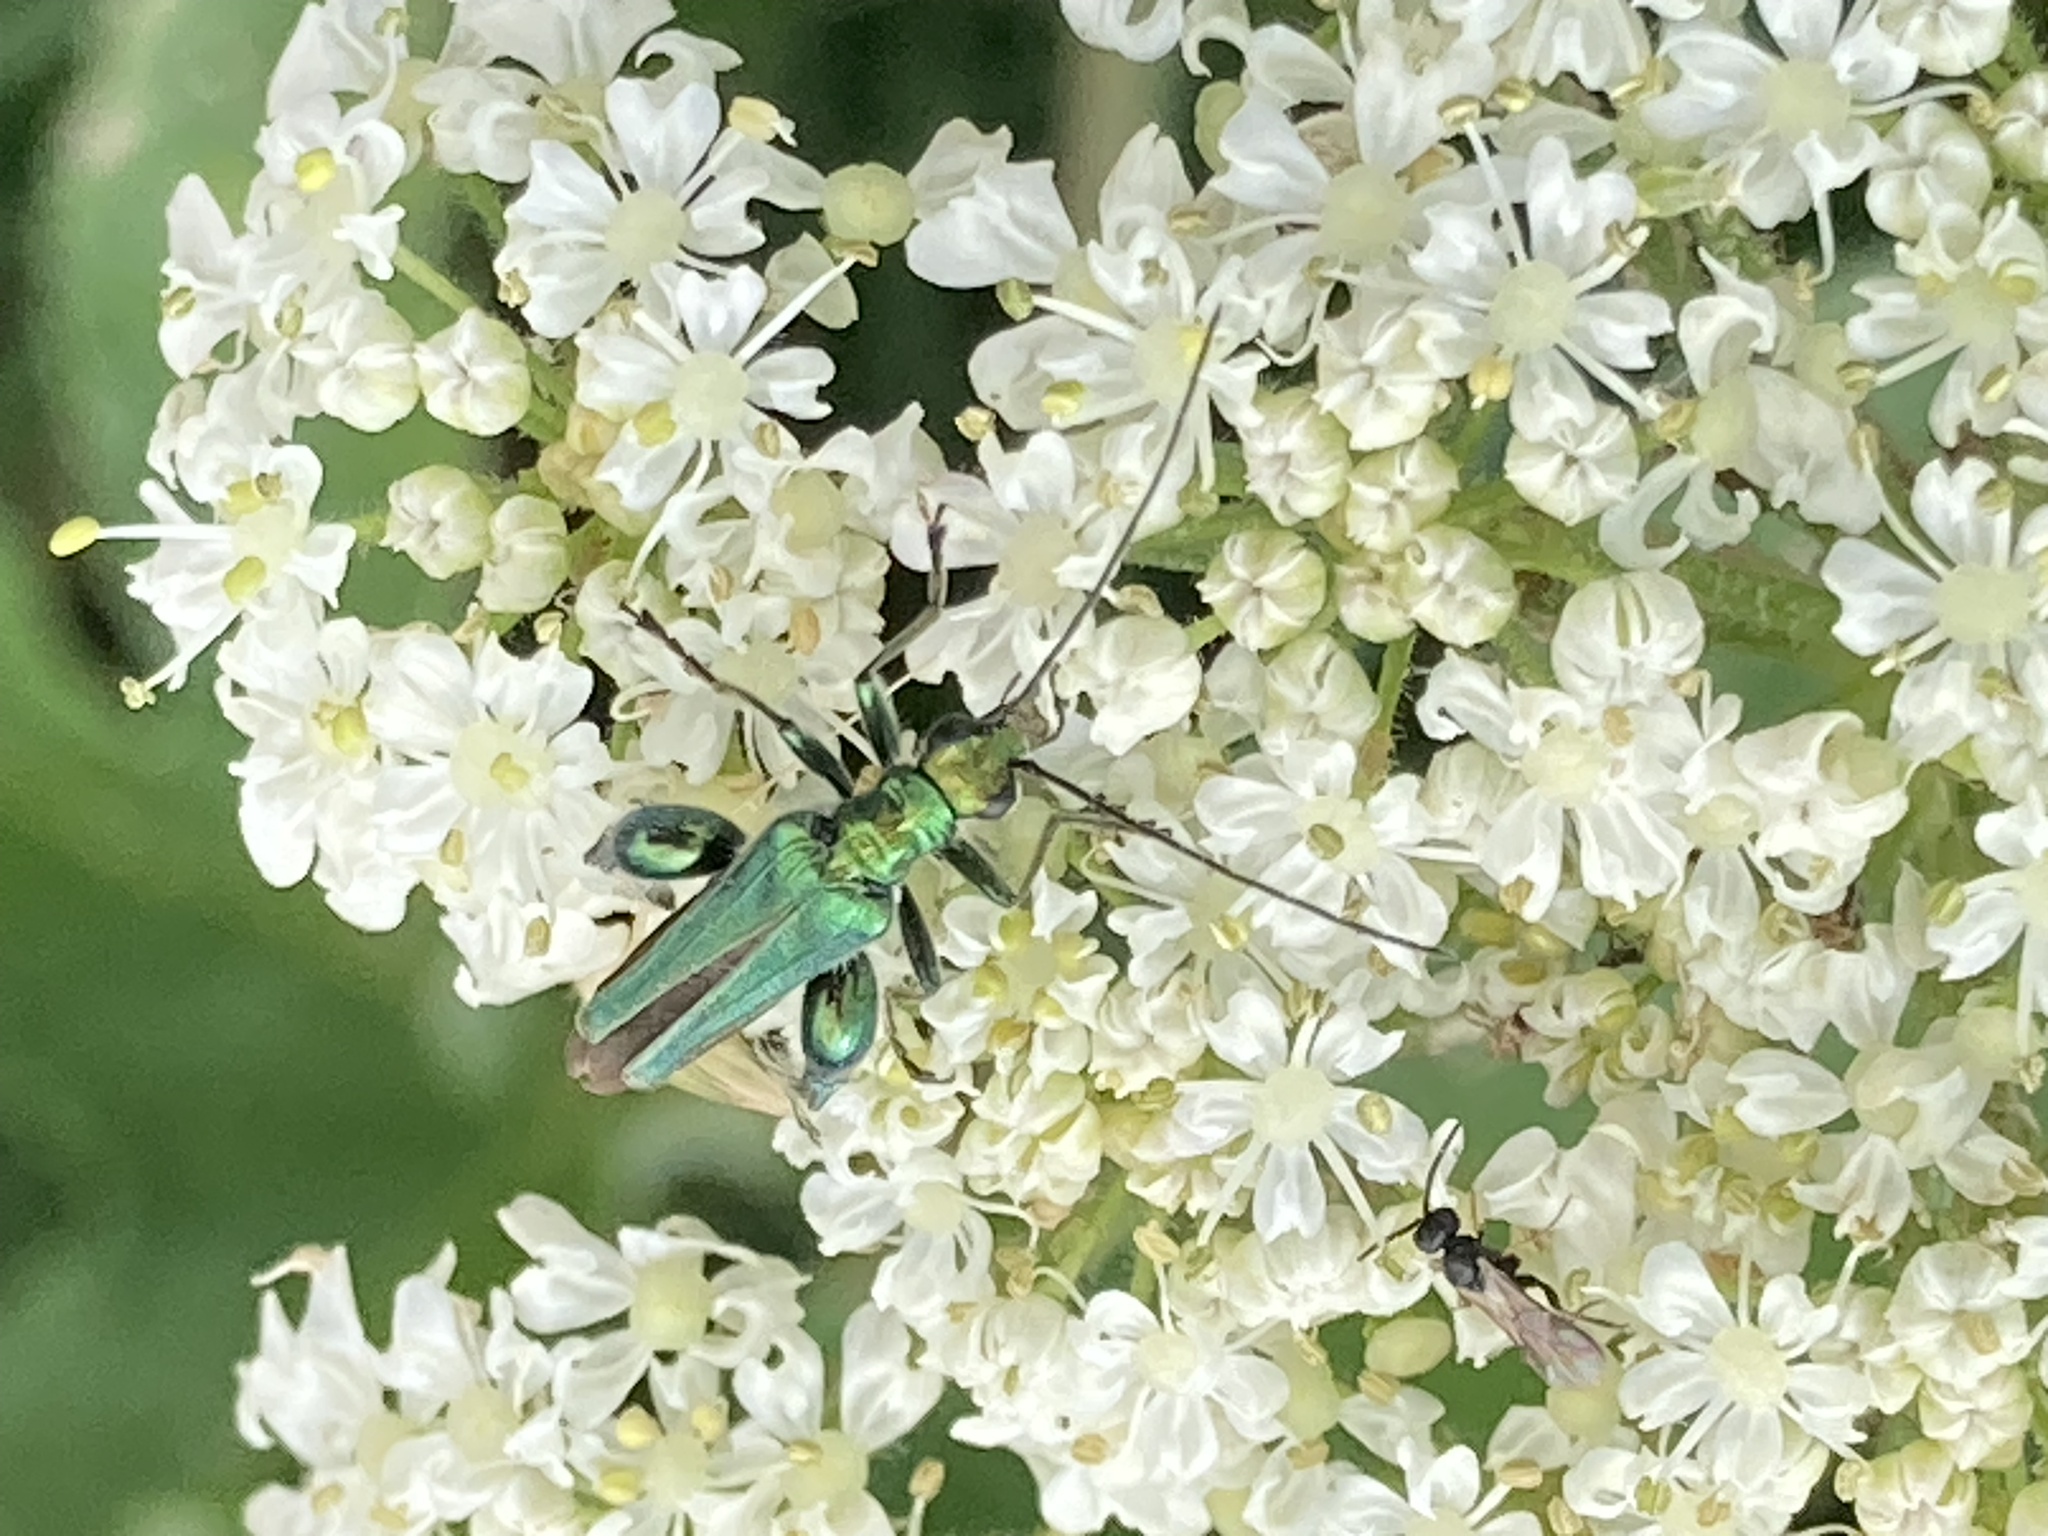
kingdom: Animalia
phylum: Arthropoda
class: Insecta
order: Coleoptera
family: Oedemeridae
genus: Oedemera
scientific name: Oedemera nobilis
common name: Swollen-thighed beetle
